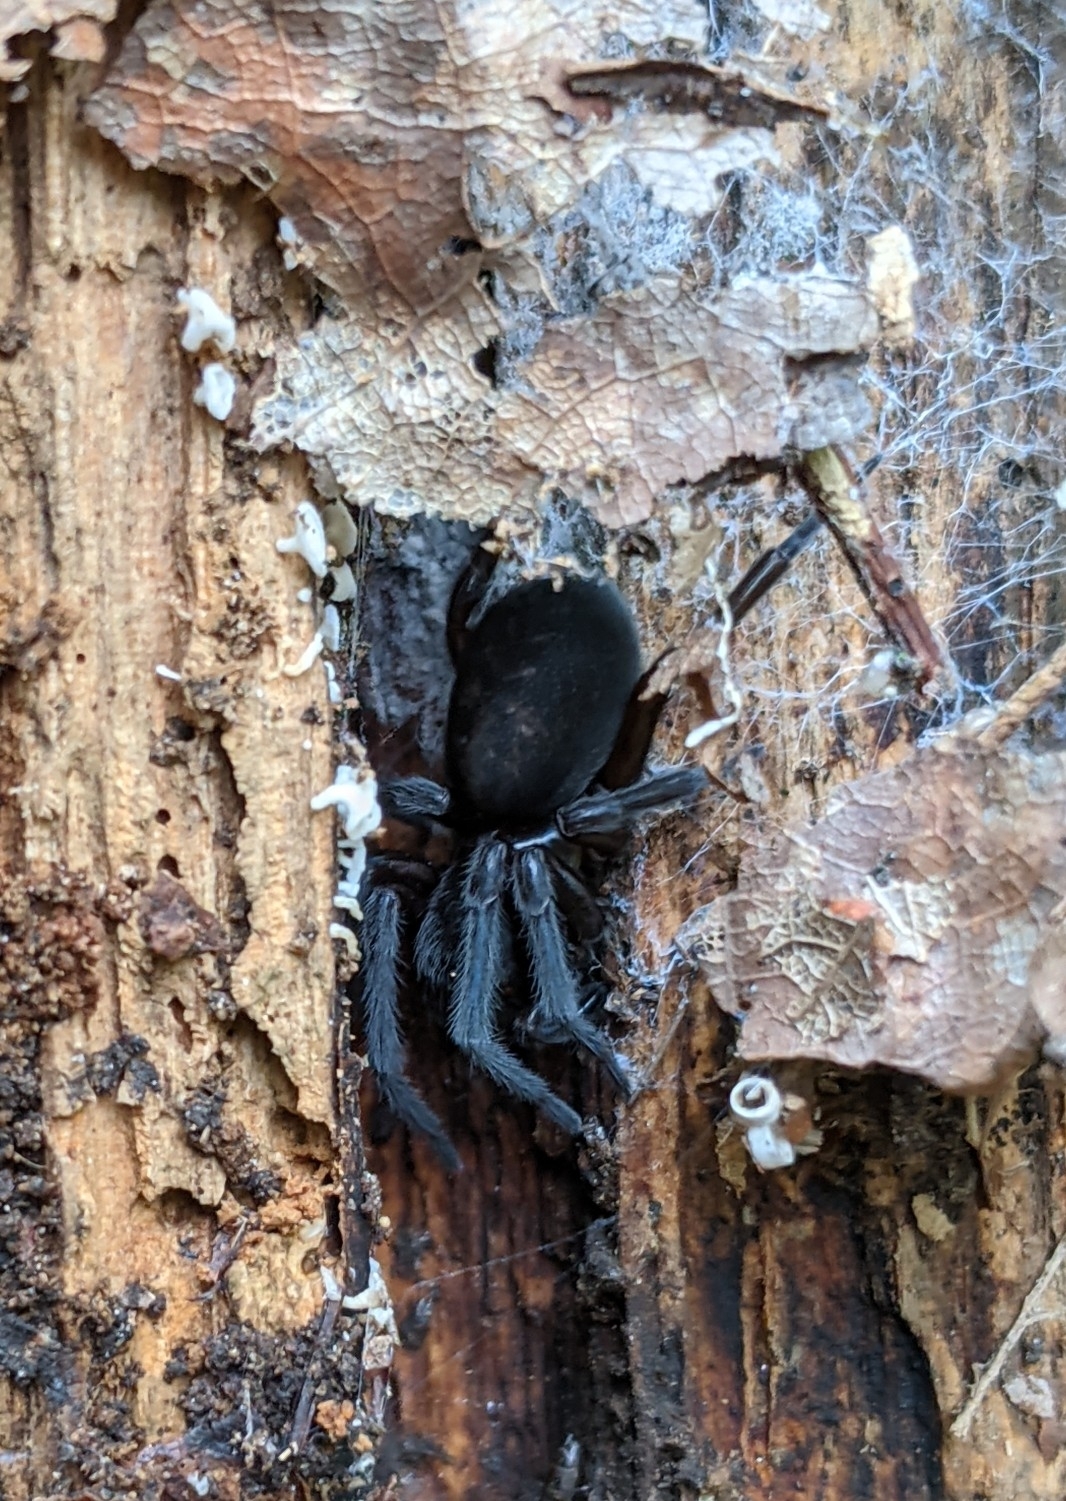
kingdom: Animalia
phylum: Arthropoda
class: Arachnida
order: Araneae
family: Amaurobiidae
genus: Amaurobius
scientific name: Amaurobius ferox
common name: Black laceweaver
